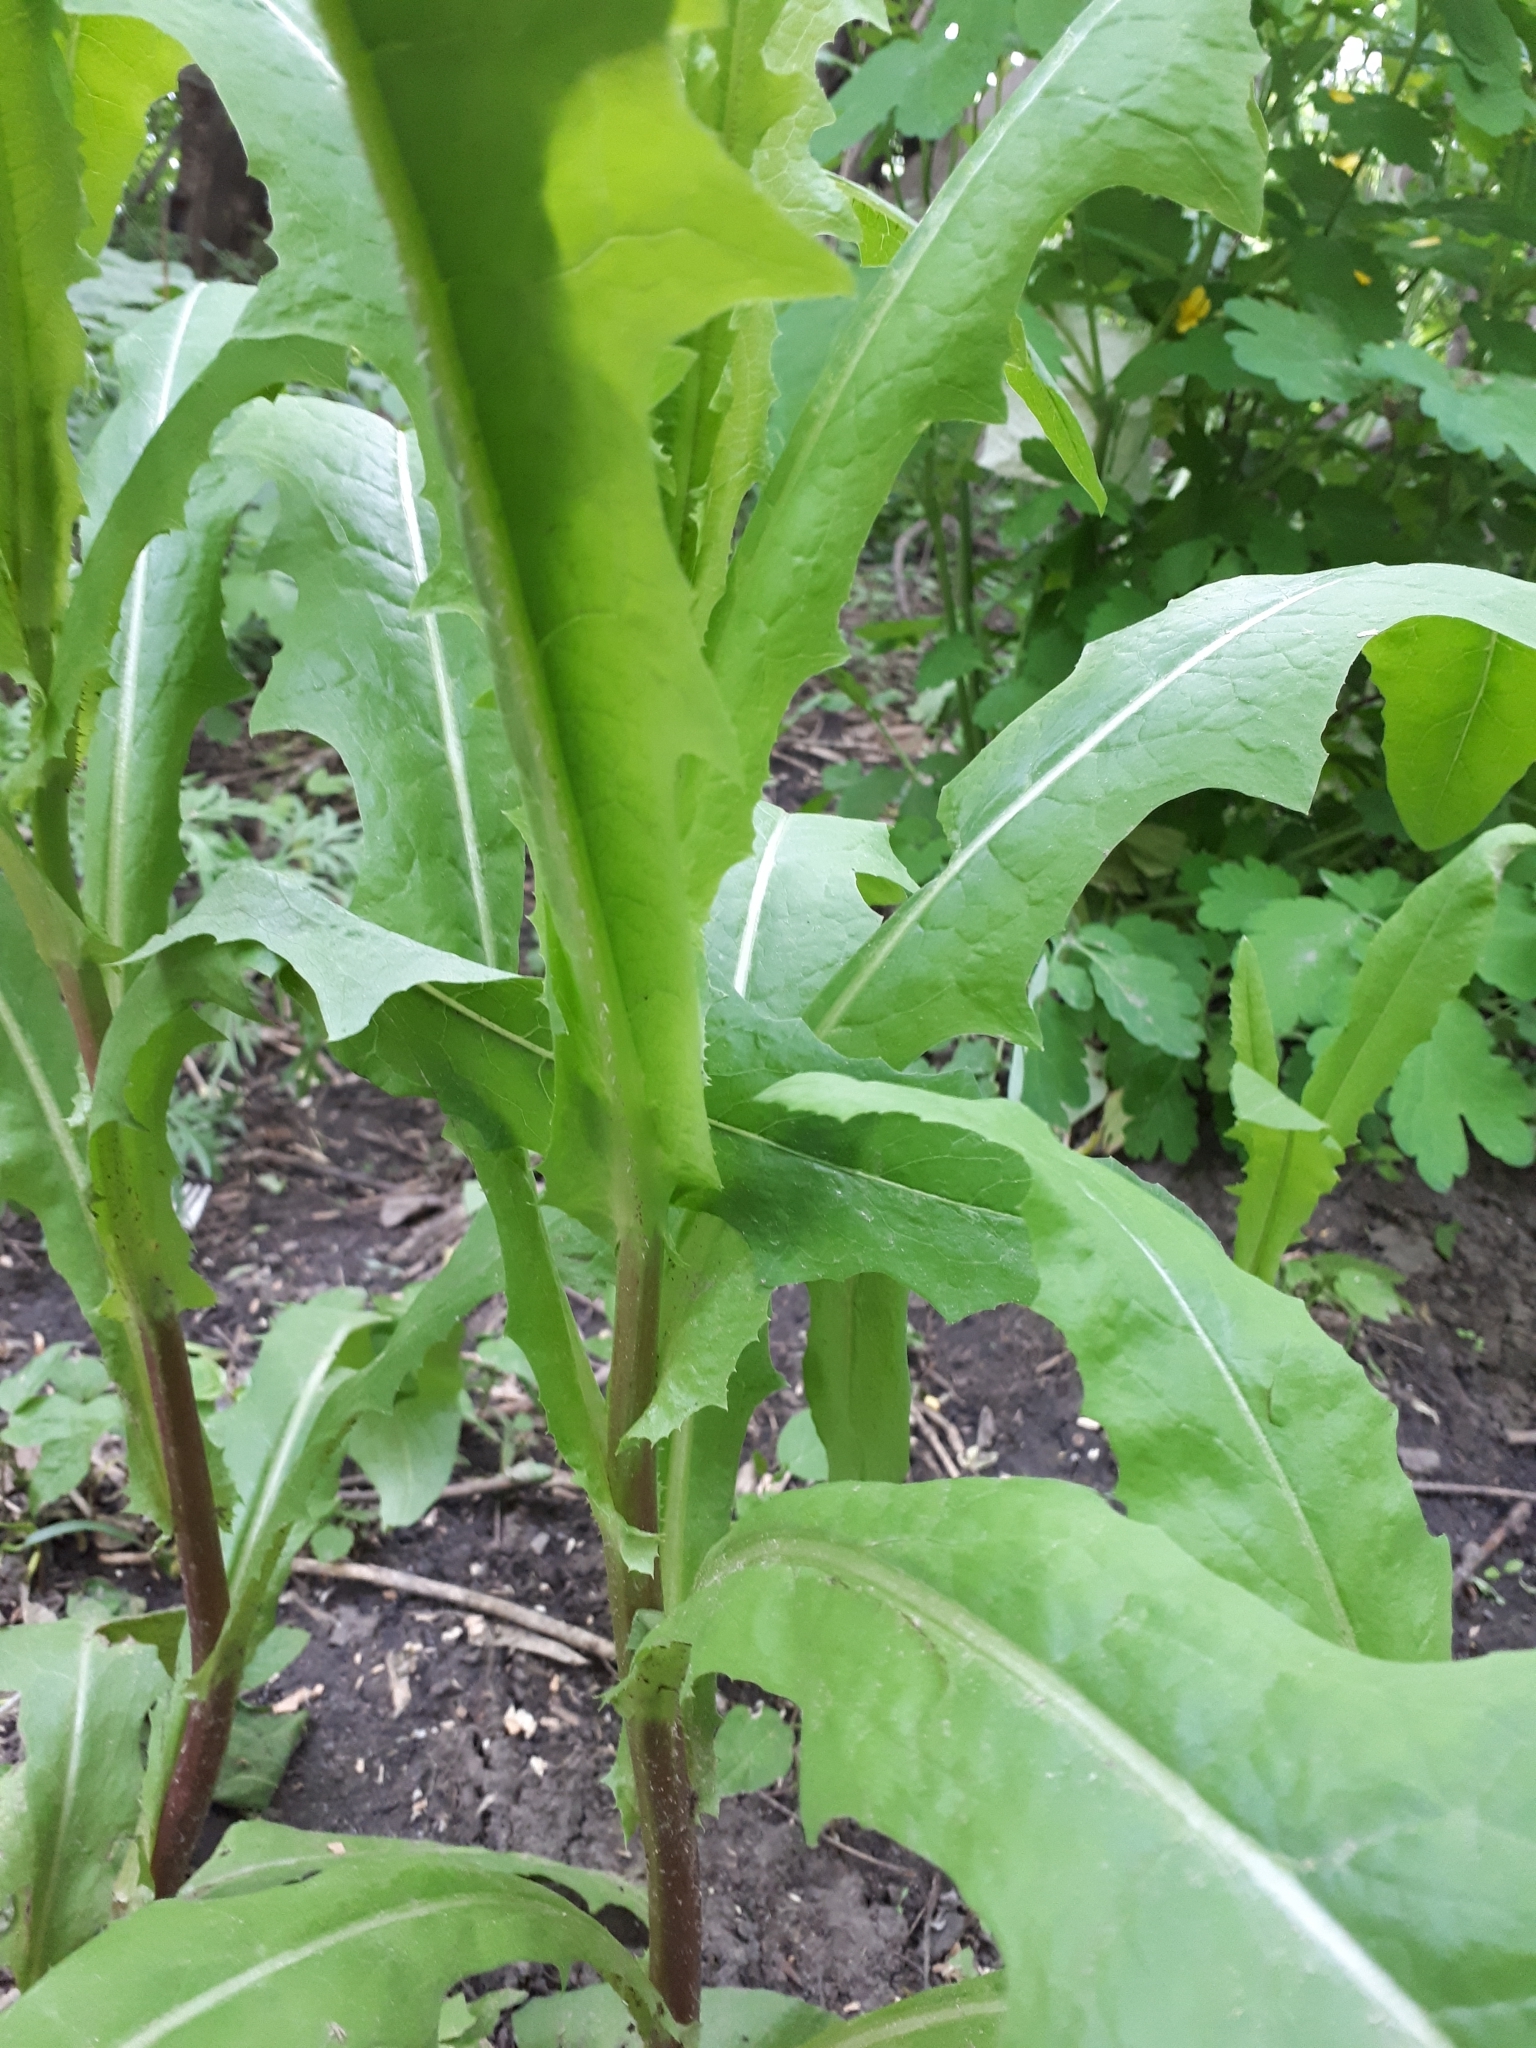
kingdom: Plantae
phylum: Tracheophyta
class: Magnoliopsida
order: Asterales
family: Asteraceae
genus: Lactuca
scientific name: Lactuca serriola
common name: Prickly lettuce
